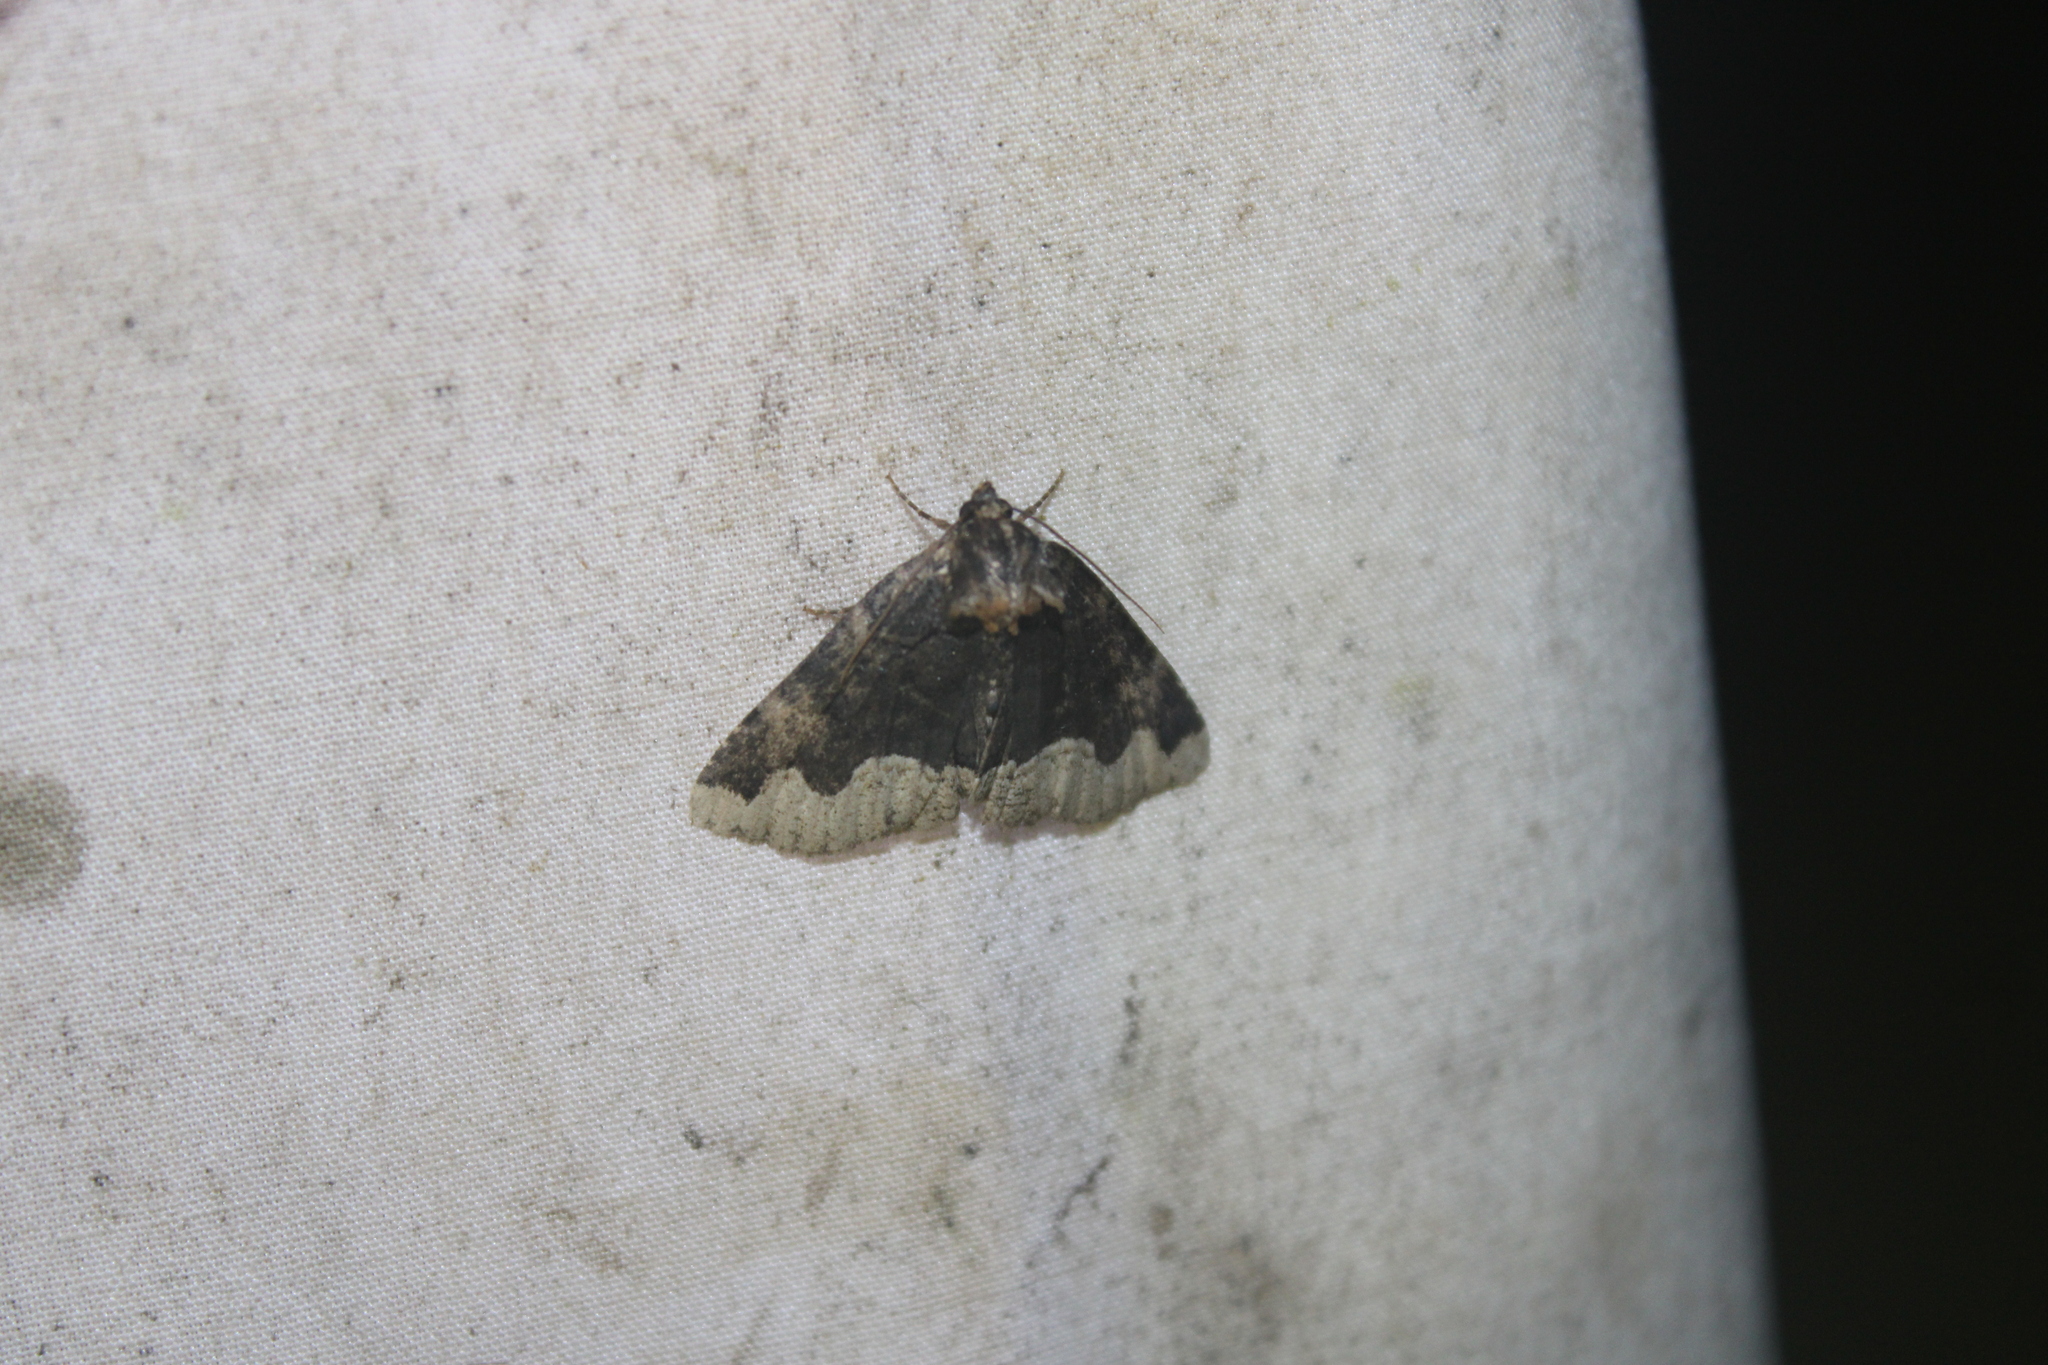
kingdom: Animalia
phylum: Arthropoda
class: Insecta
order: Lepidoptera
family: Erebidae
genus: Zale
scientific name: Zale horrida
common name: Horrid zale moth
